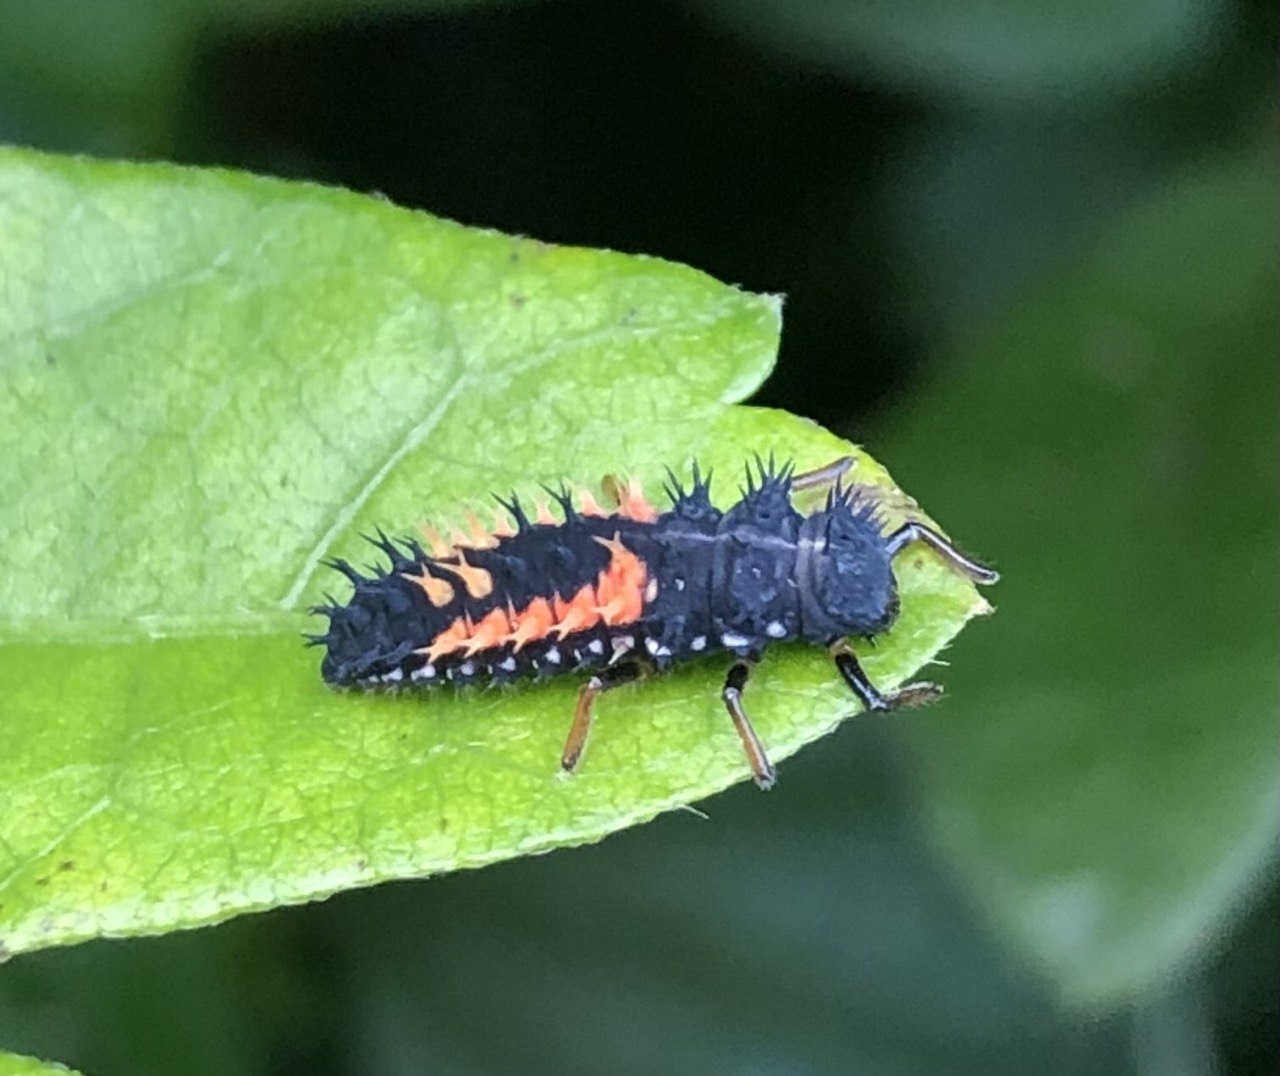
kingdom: Animalia
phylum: Arthropoda
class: Insecta
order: Coleoptera
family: Coccinellidae
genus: Harmonia
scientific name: Harmonia axyridis
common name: Harlequin ladybird
